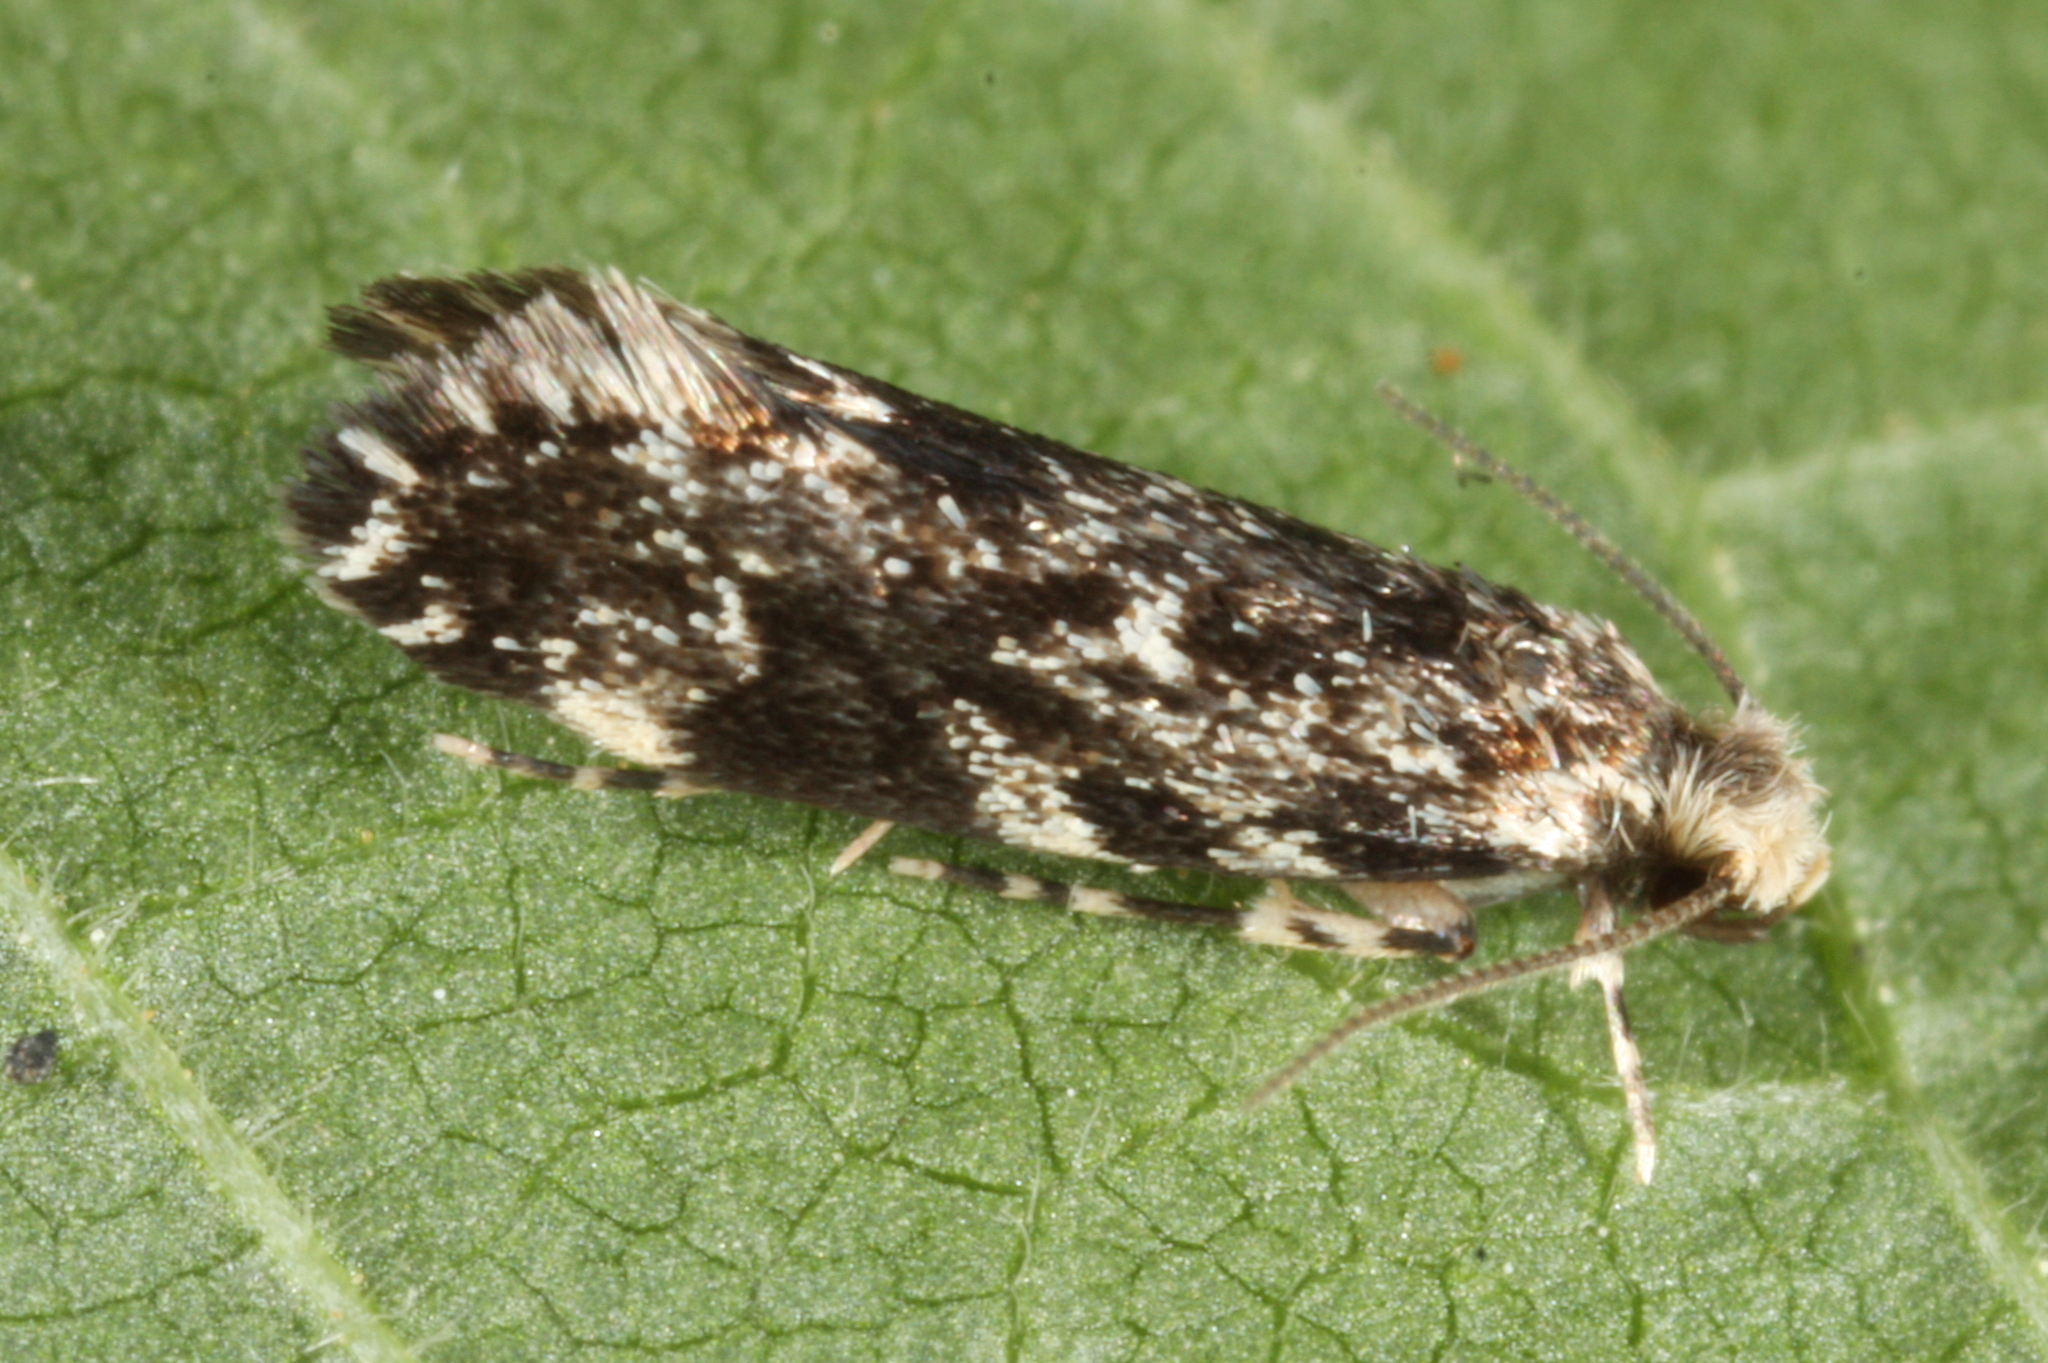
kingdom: Animalia
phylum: Arthropoda
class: Insecta
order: Lepidoptera
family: Dryadaulidae
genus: Dryadaula
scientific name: Dryadaula heindeli
